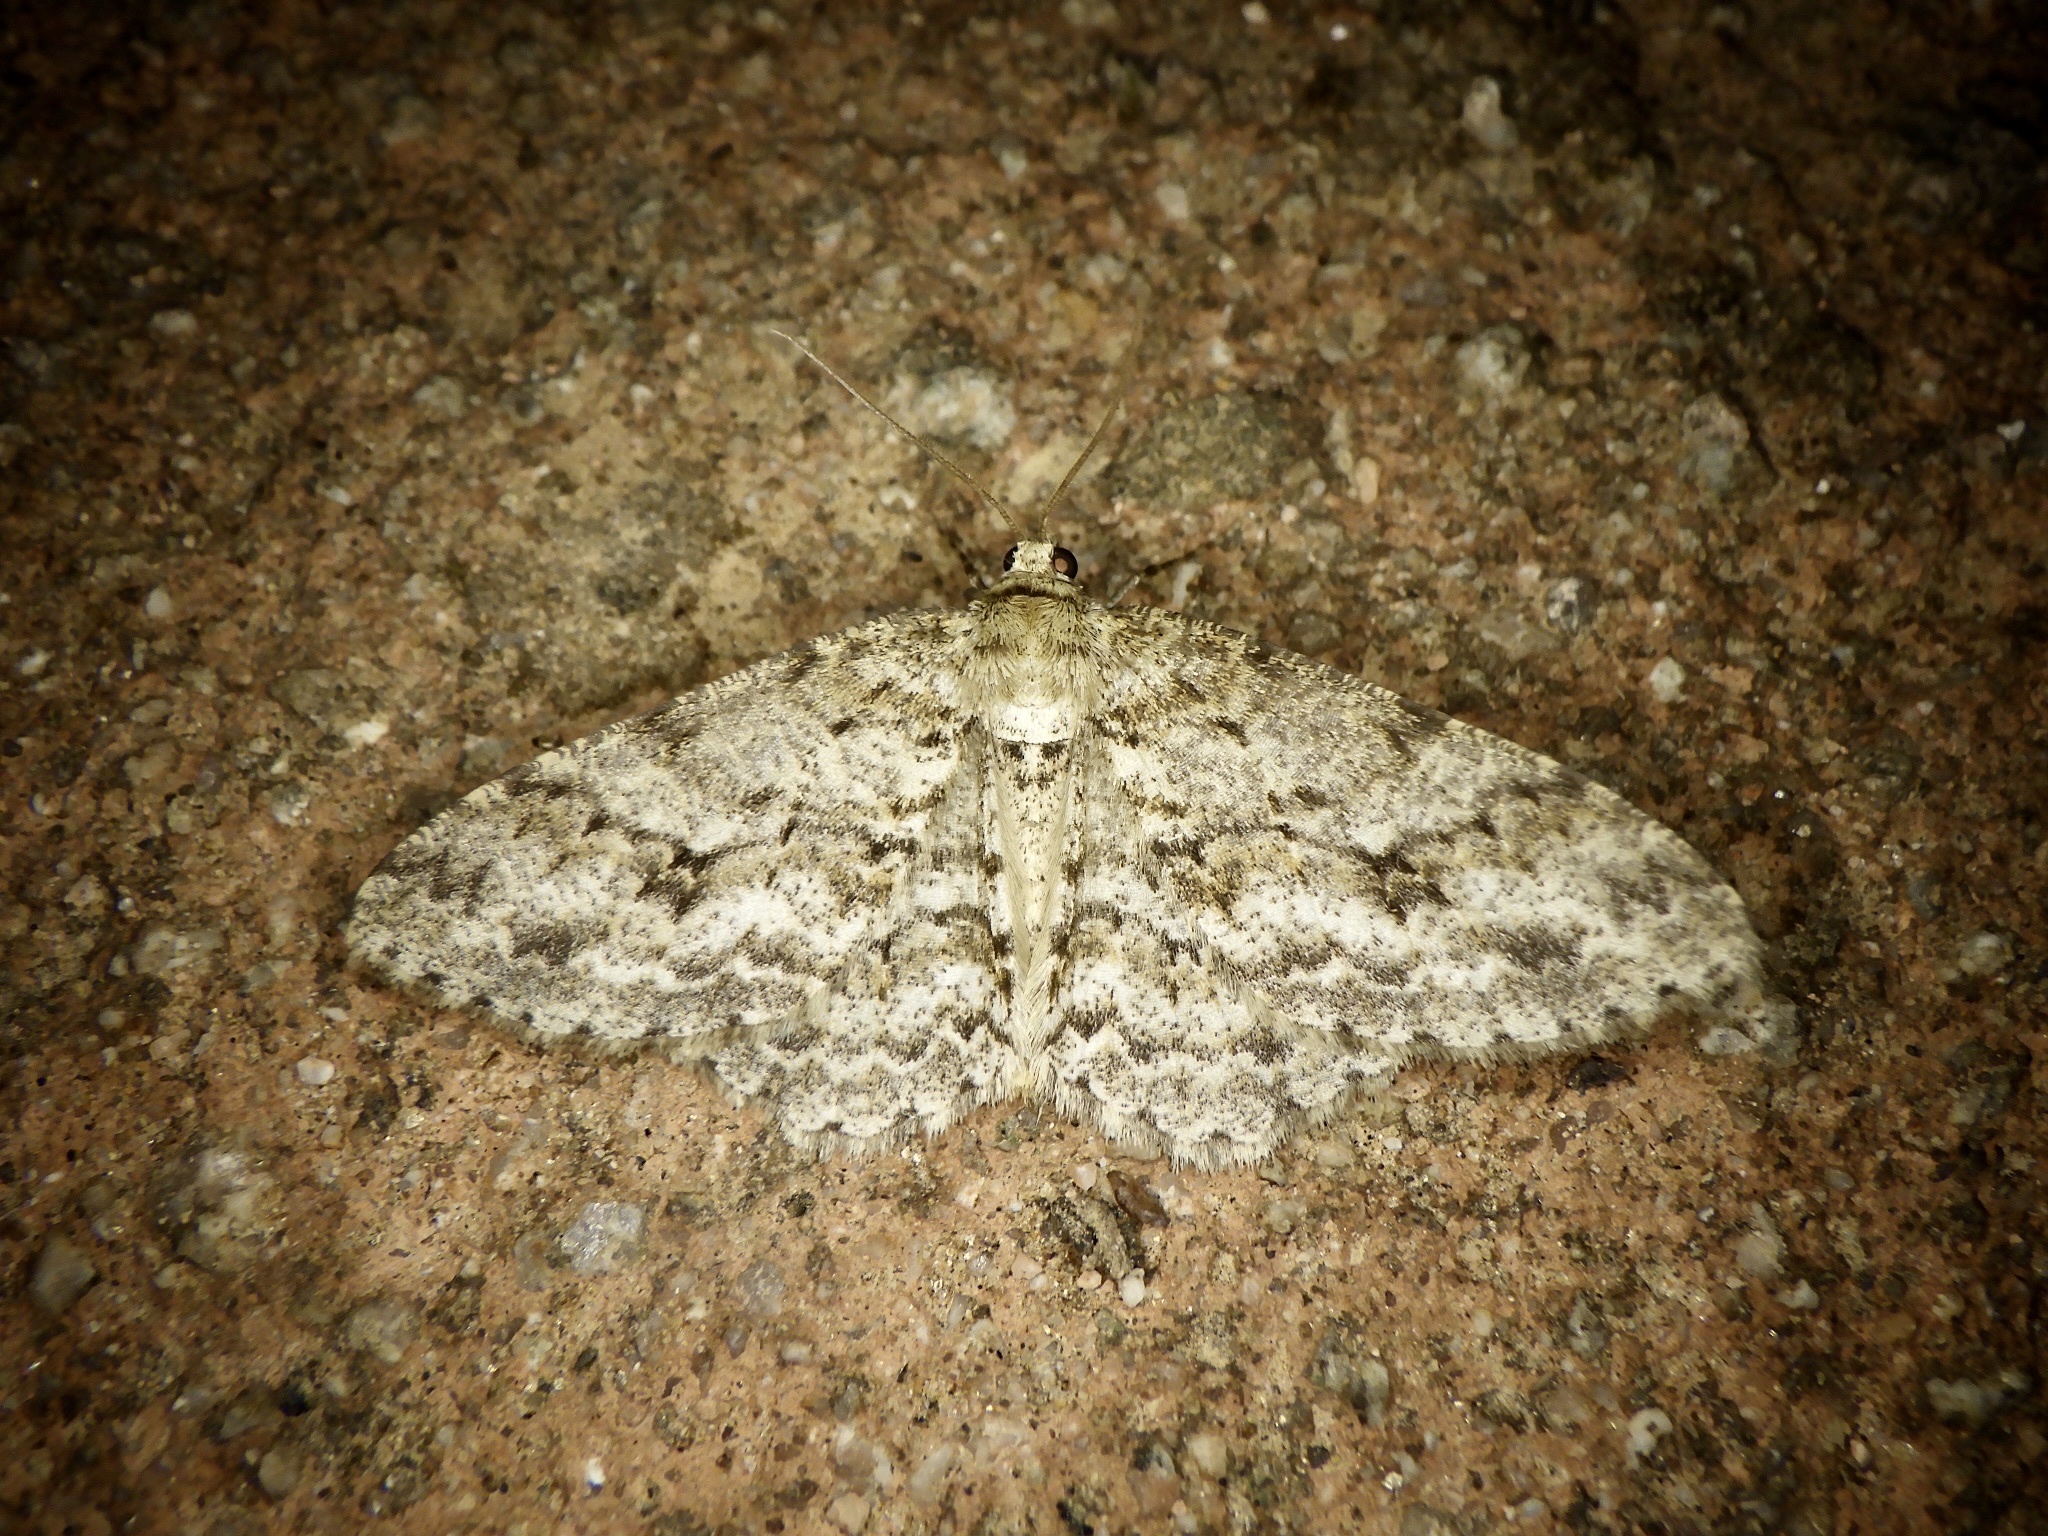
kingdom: Animalia
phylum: Arthropoda
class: Insecta
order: Lepidoptera
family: Geometridae
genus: Ectropis
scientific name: Ectropis crepuscularia
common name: Engrailed
